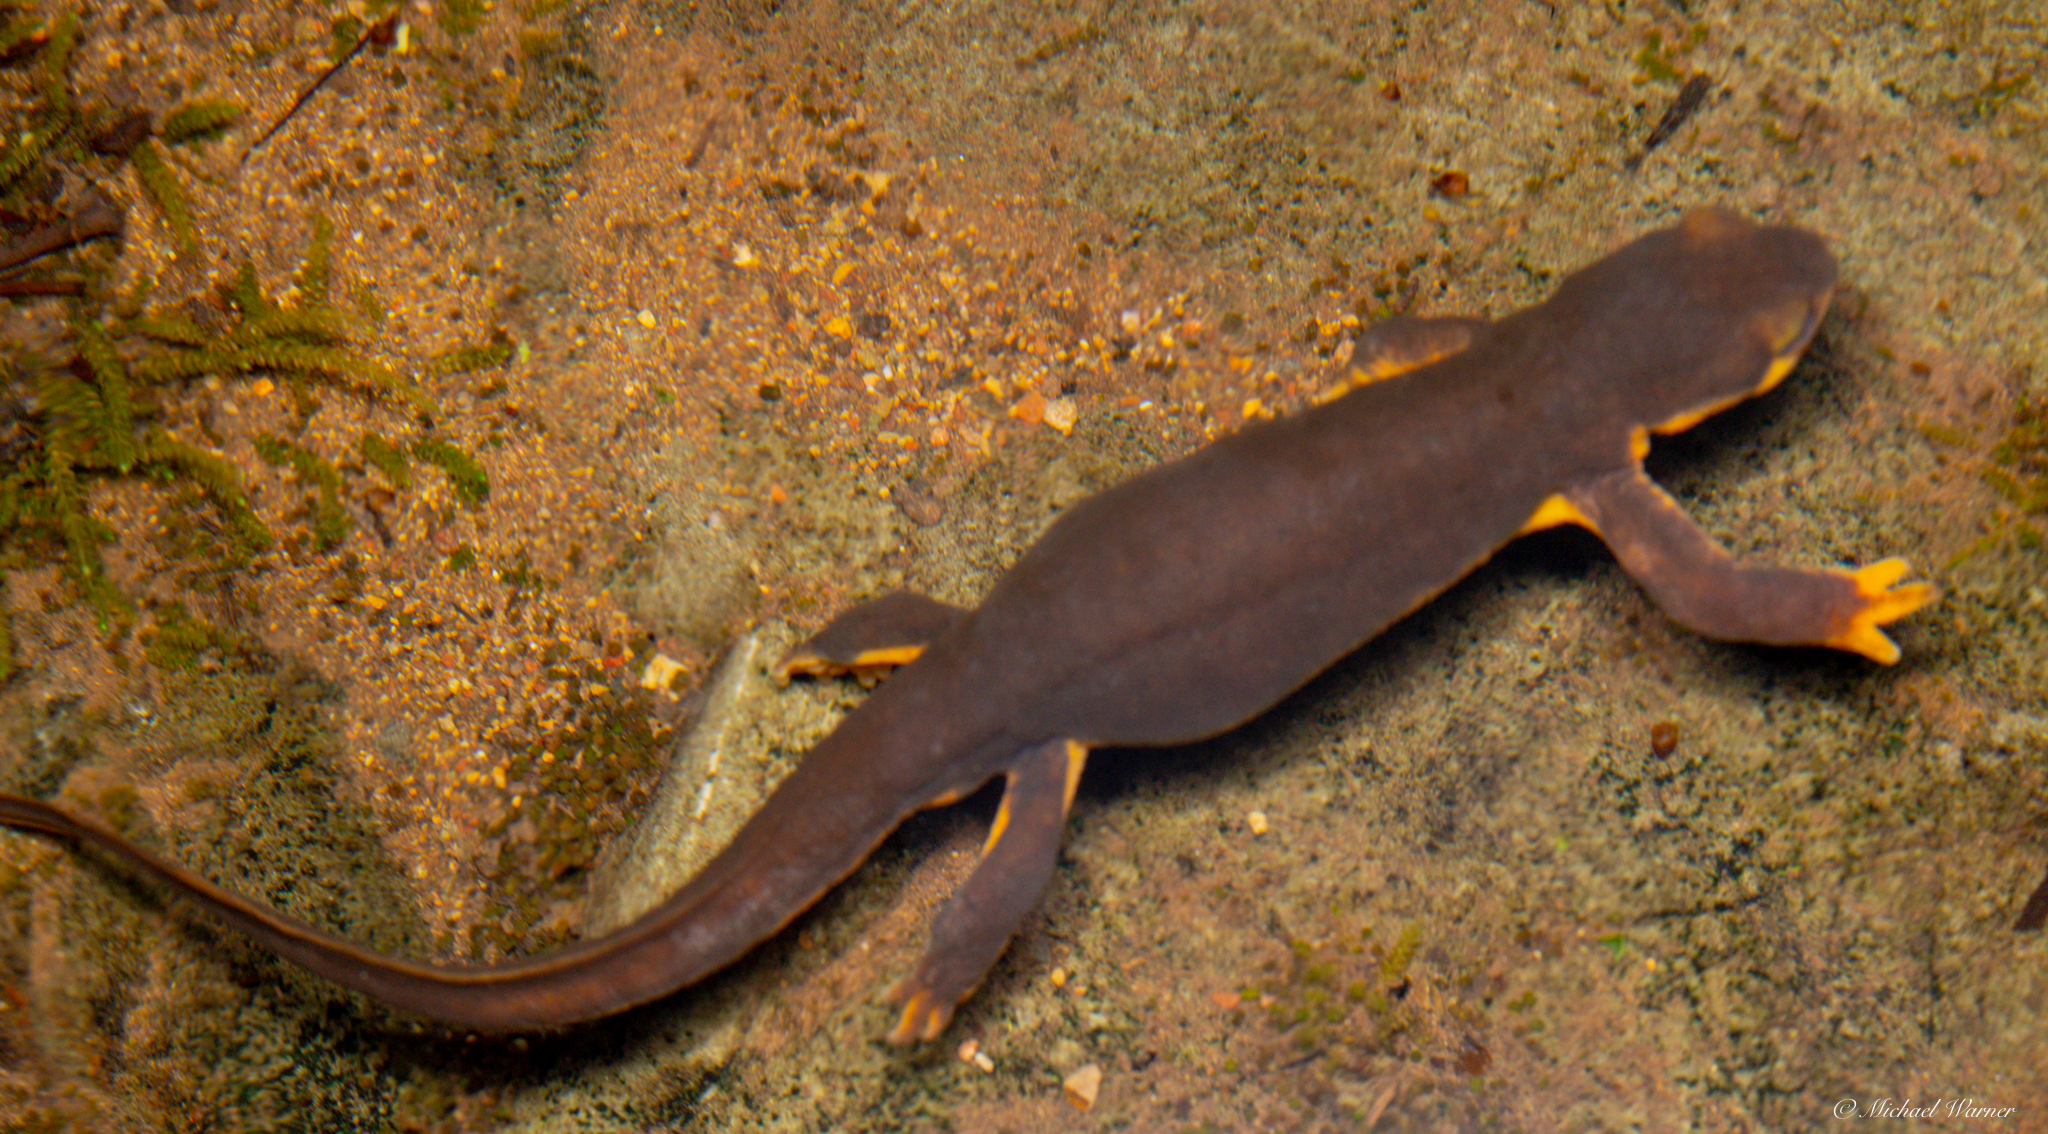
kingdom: Animalia
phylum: Chordata
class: Amphibia
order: Caudata
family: Salamandridae
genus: Taricha
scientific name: Taricha torosa
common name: California newt
